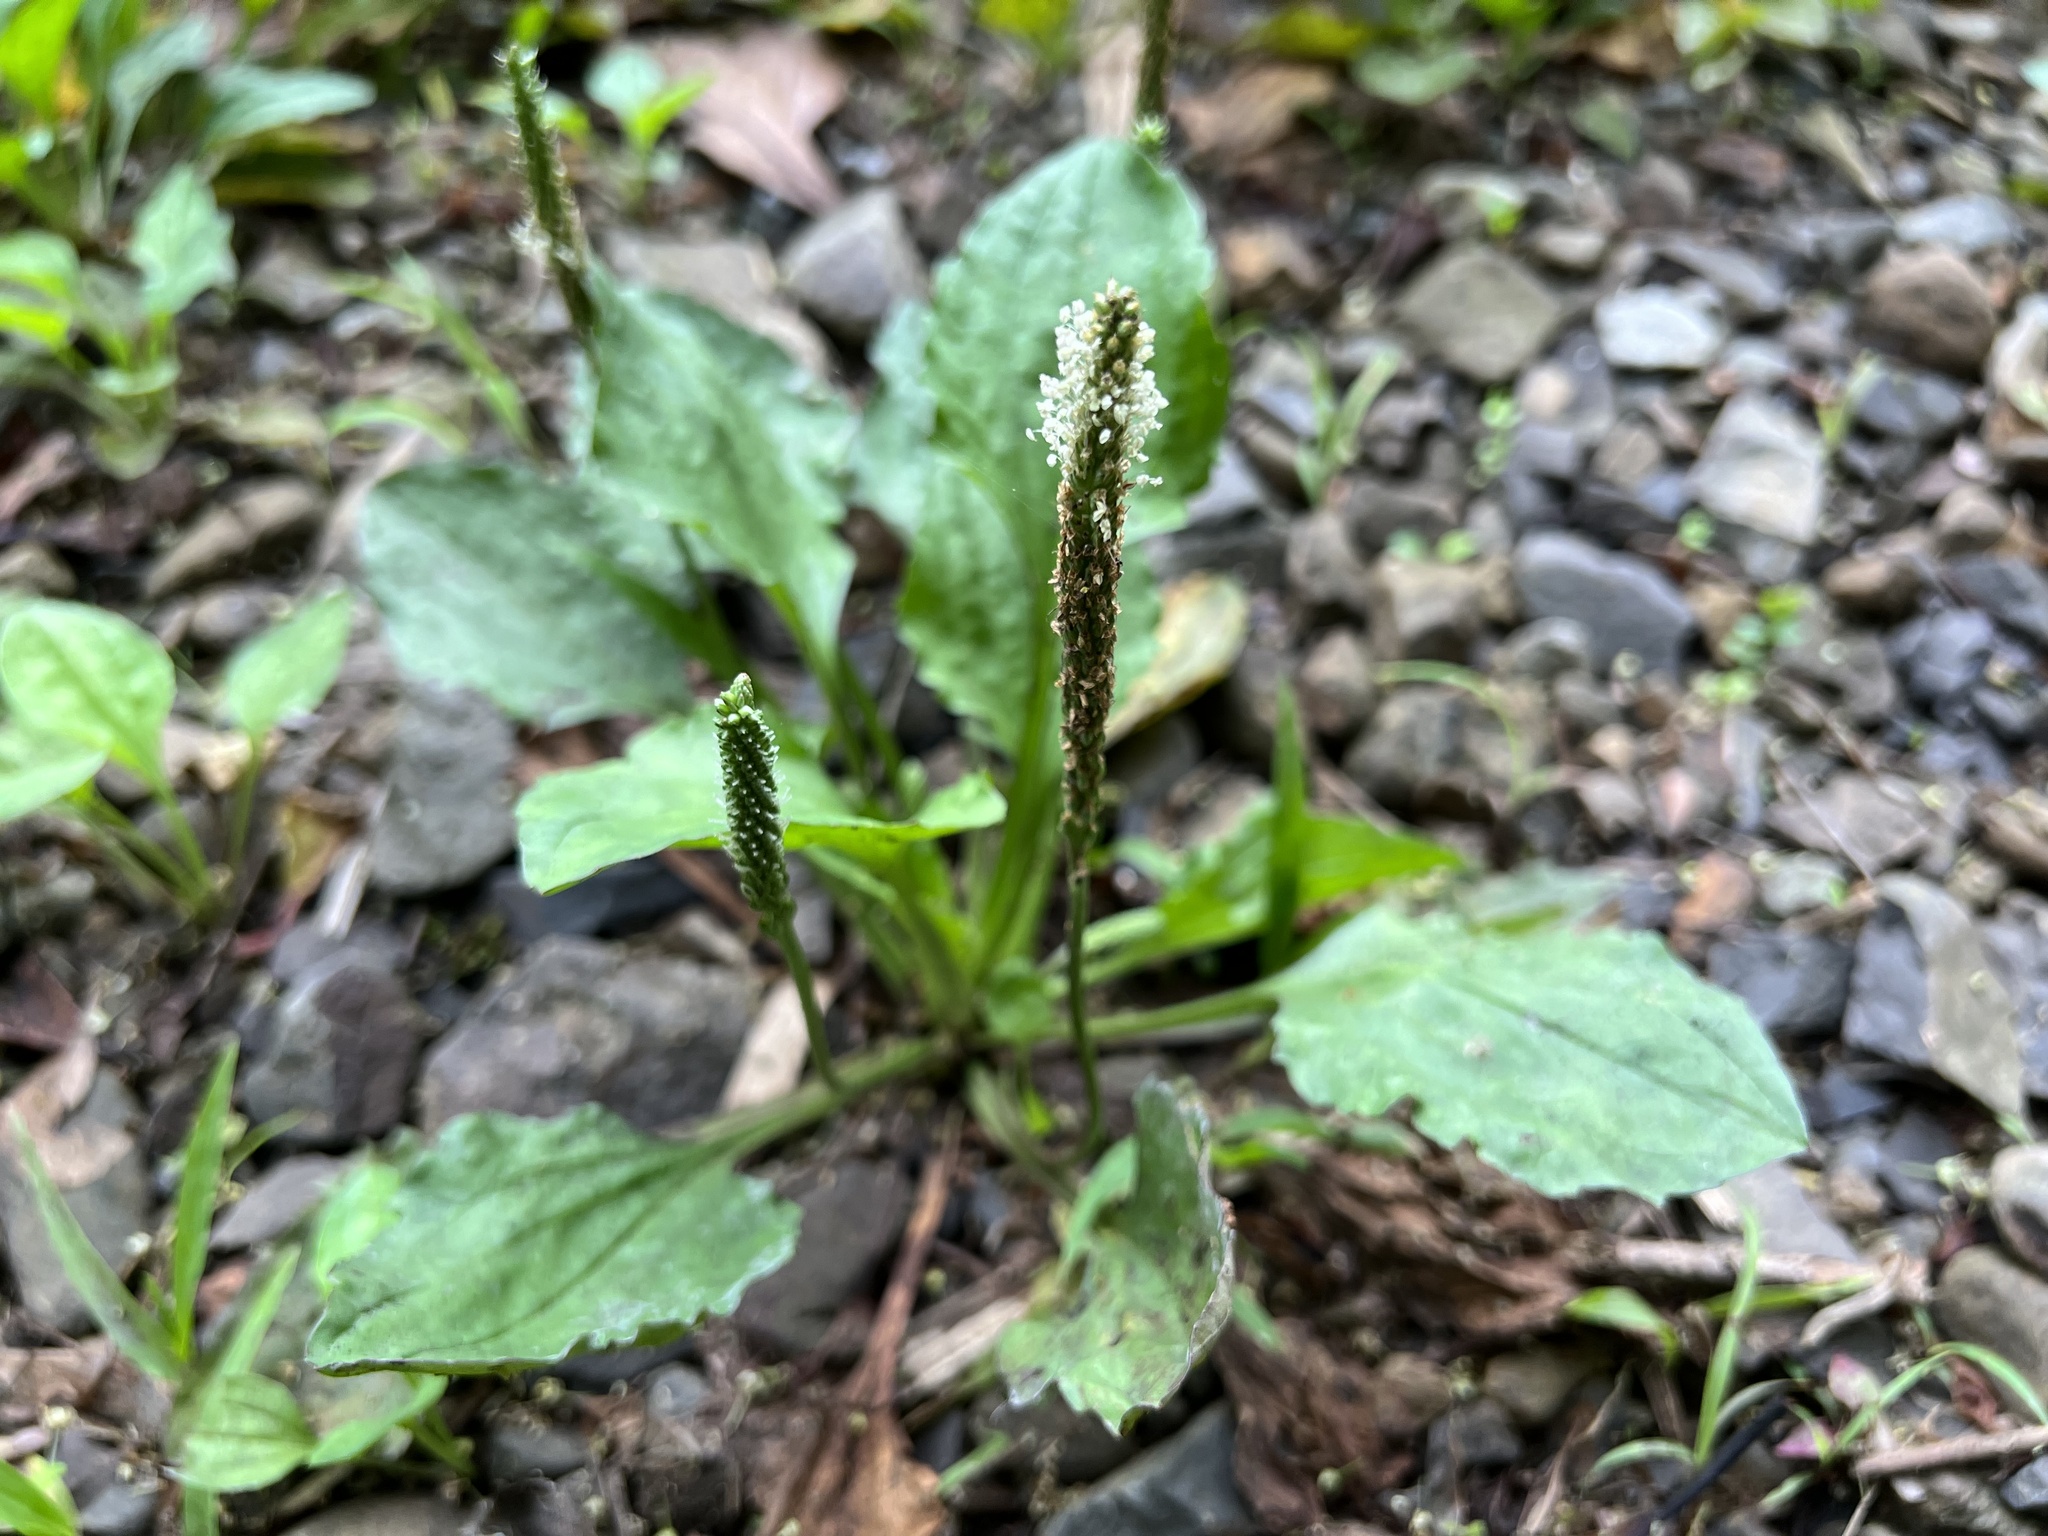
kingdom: Plantae
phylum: Tracheophyta
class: Magnoliopsida
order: Lamiales
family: Plantaginaceae
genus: Plantago
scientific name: Plantago asiatica
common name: Psyllium
